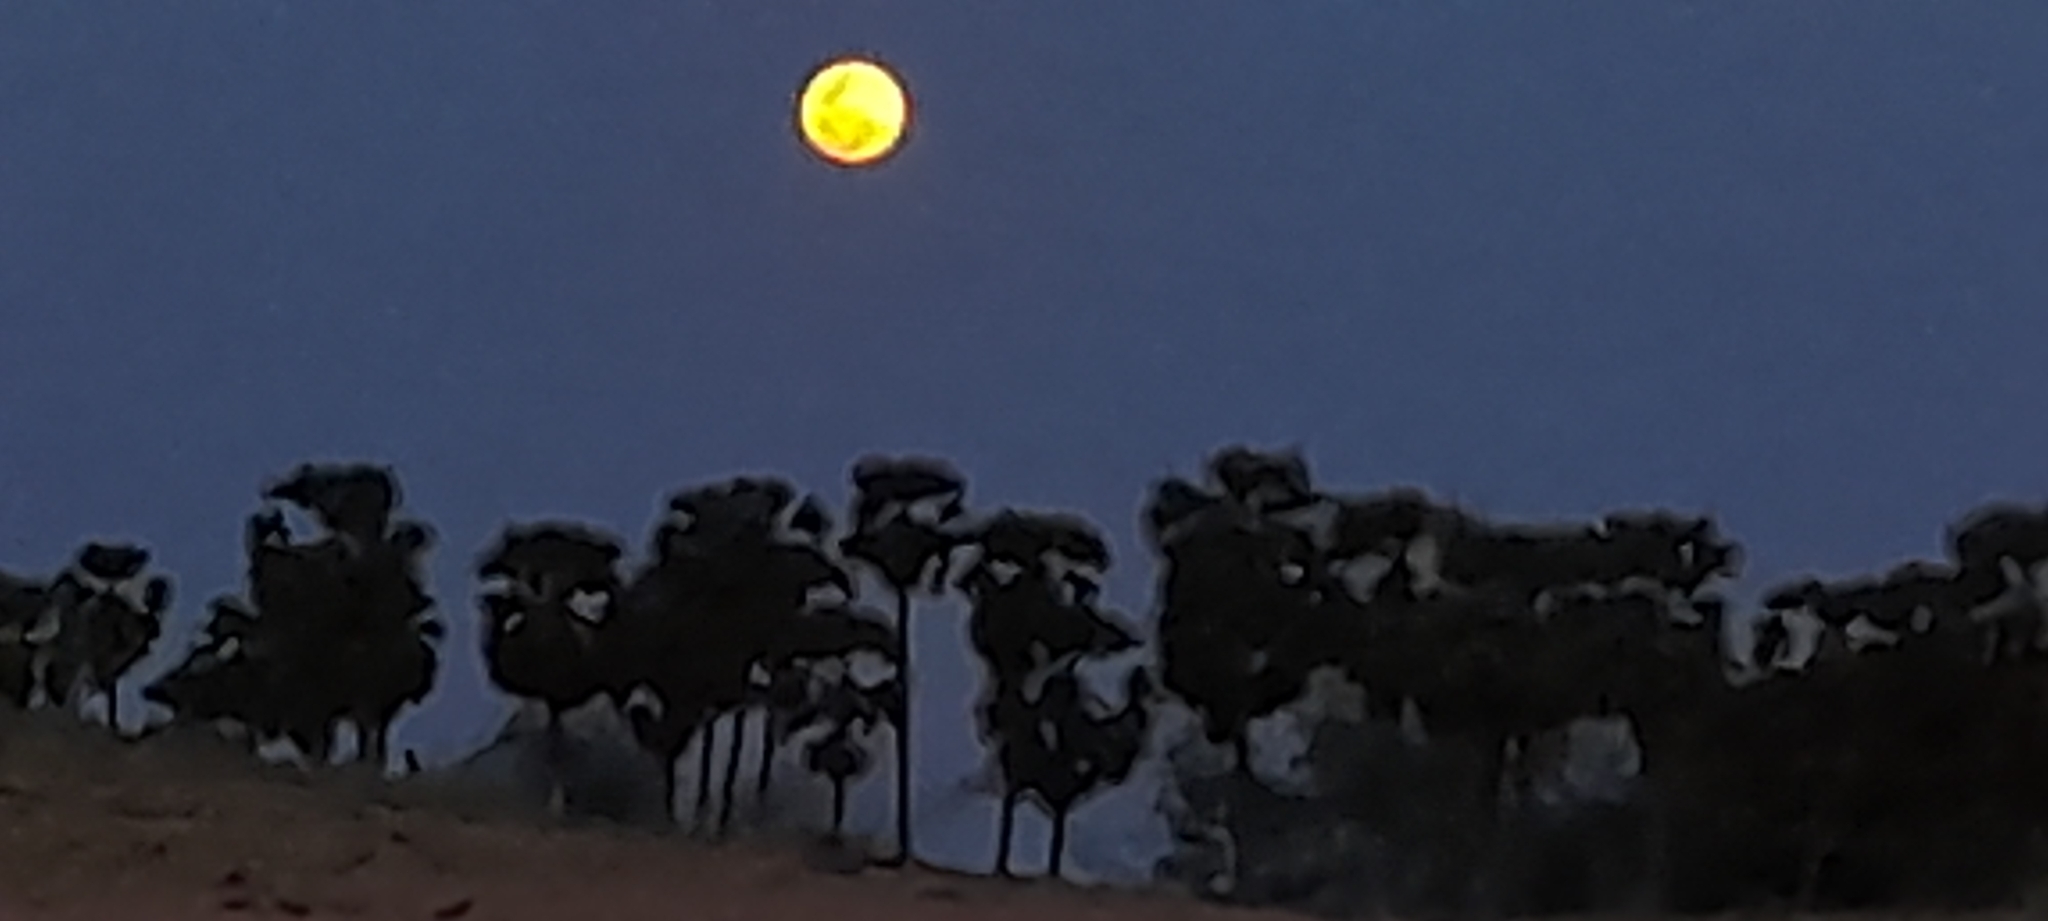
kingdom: Plantae
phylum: Tracheophyta
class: Liliopsida
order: Arecales
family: Arecaceae
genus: Borassus
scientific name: Borassus flabellifer
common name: Palmyra palm
